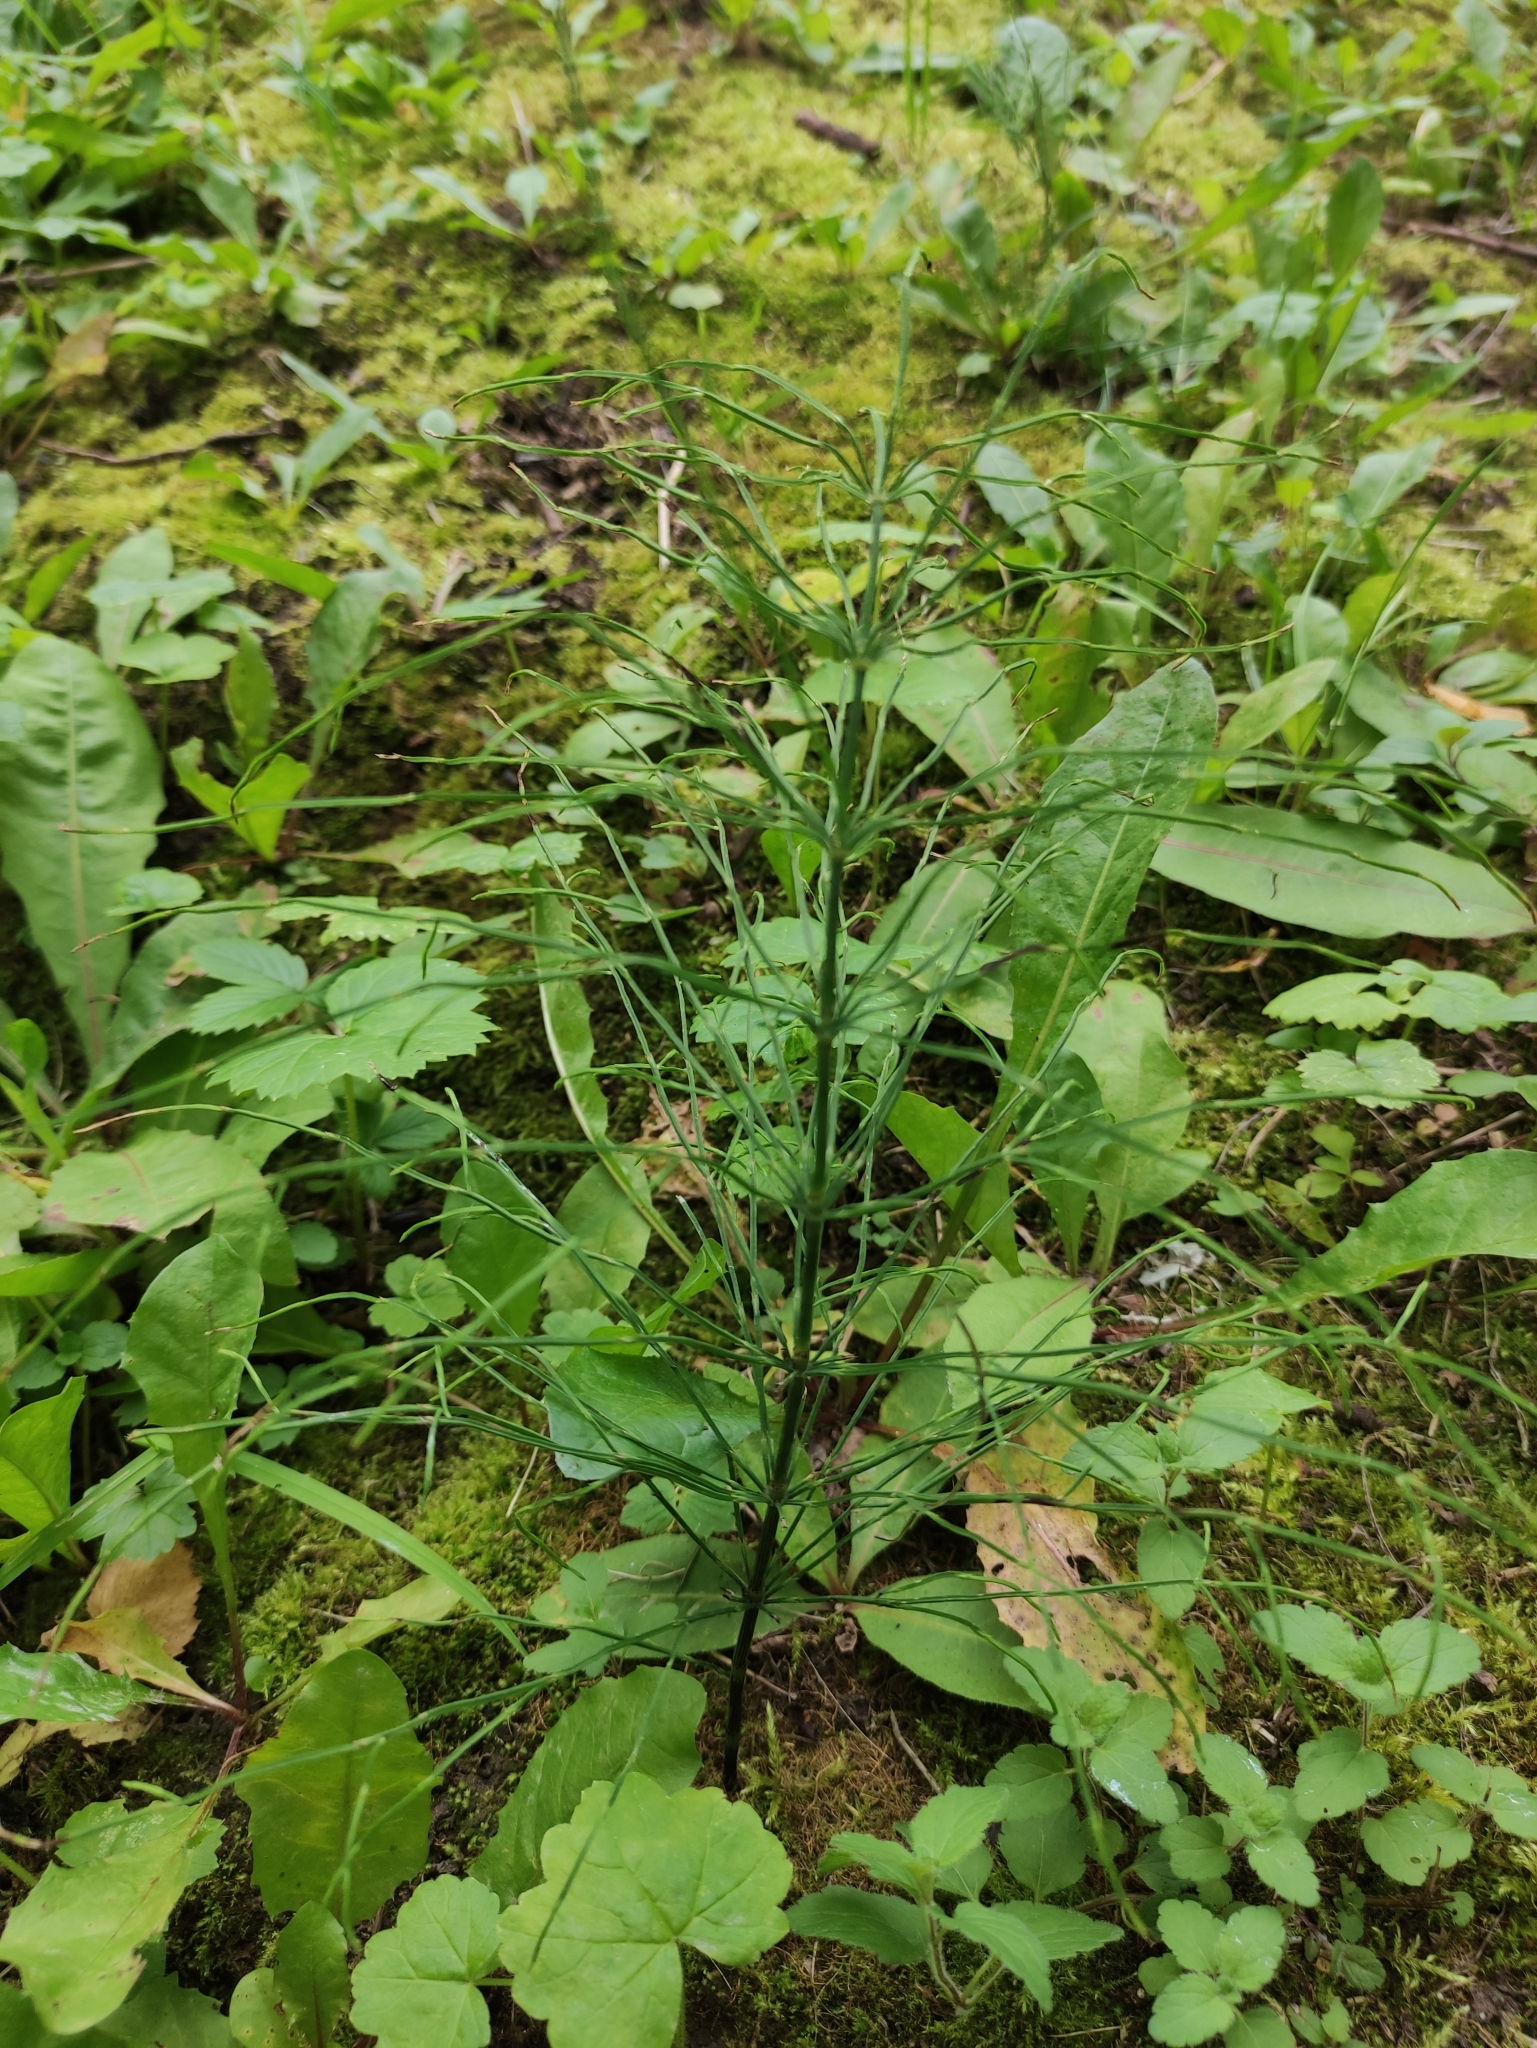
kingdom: Plantae
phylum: Tracheophyta
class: Polypodiopsida
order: Equisetales
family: Equisetaceae
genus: Equisetum
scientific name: Equisetum arvense
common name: Field horsetail
